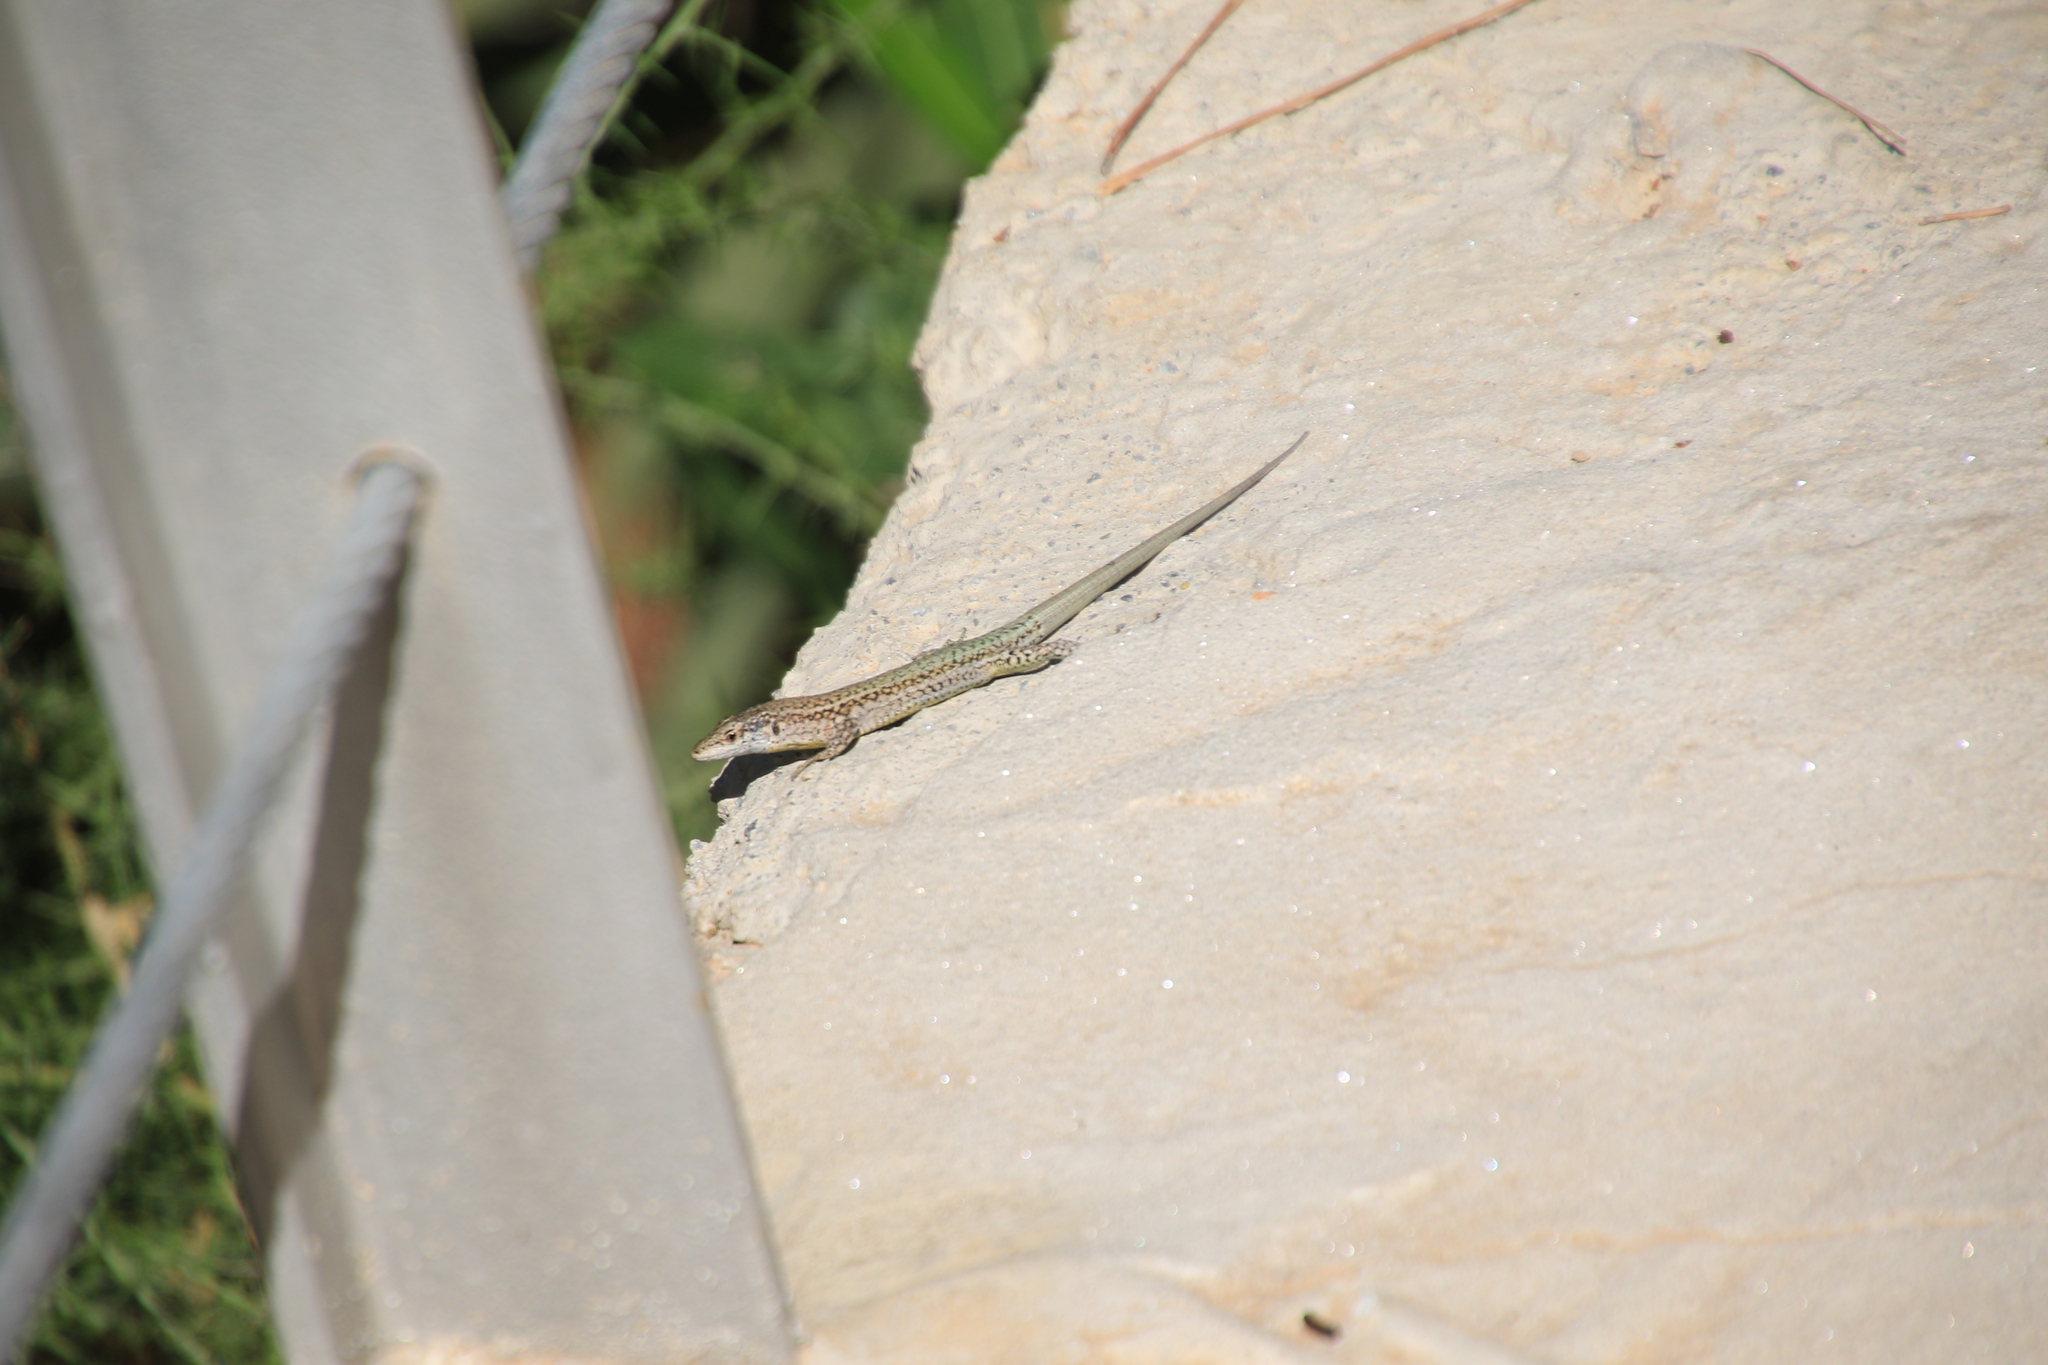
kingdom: Animalia
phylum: Chordata
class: Squamata
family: Lacertidae
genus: Podarcis
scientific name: Podarcis vaucheri
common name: Vaucher's wall lizard
